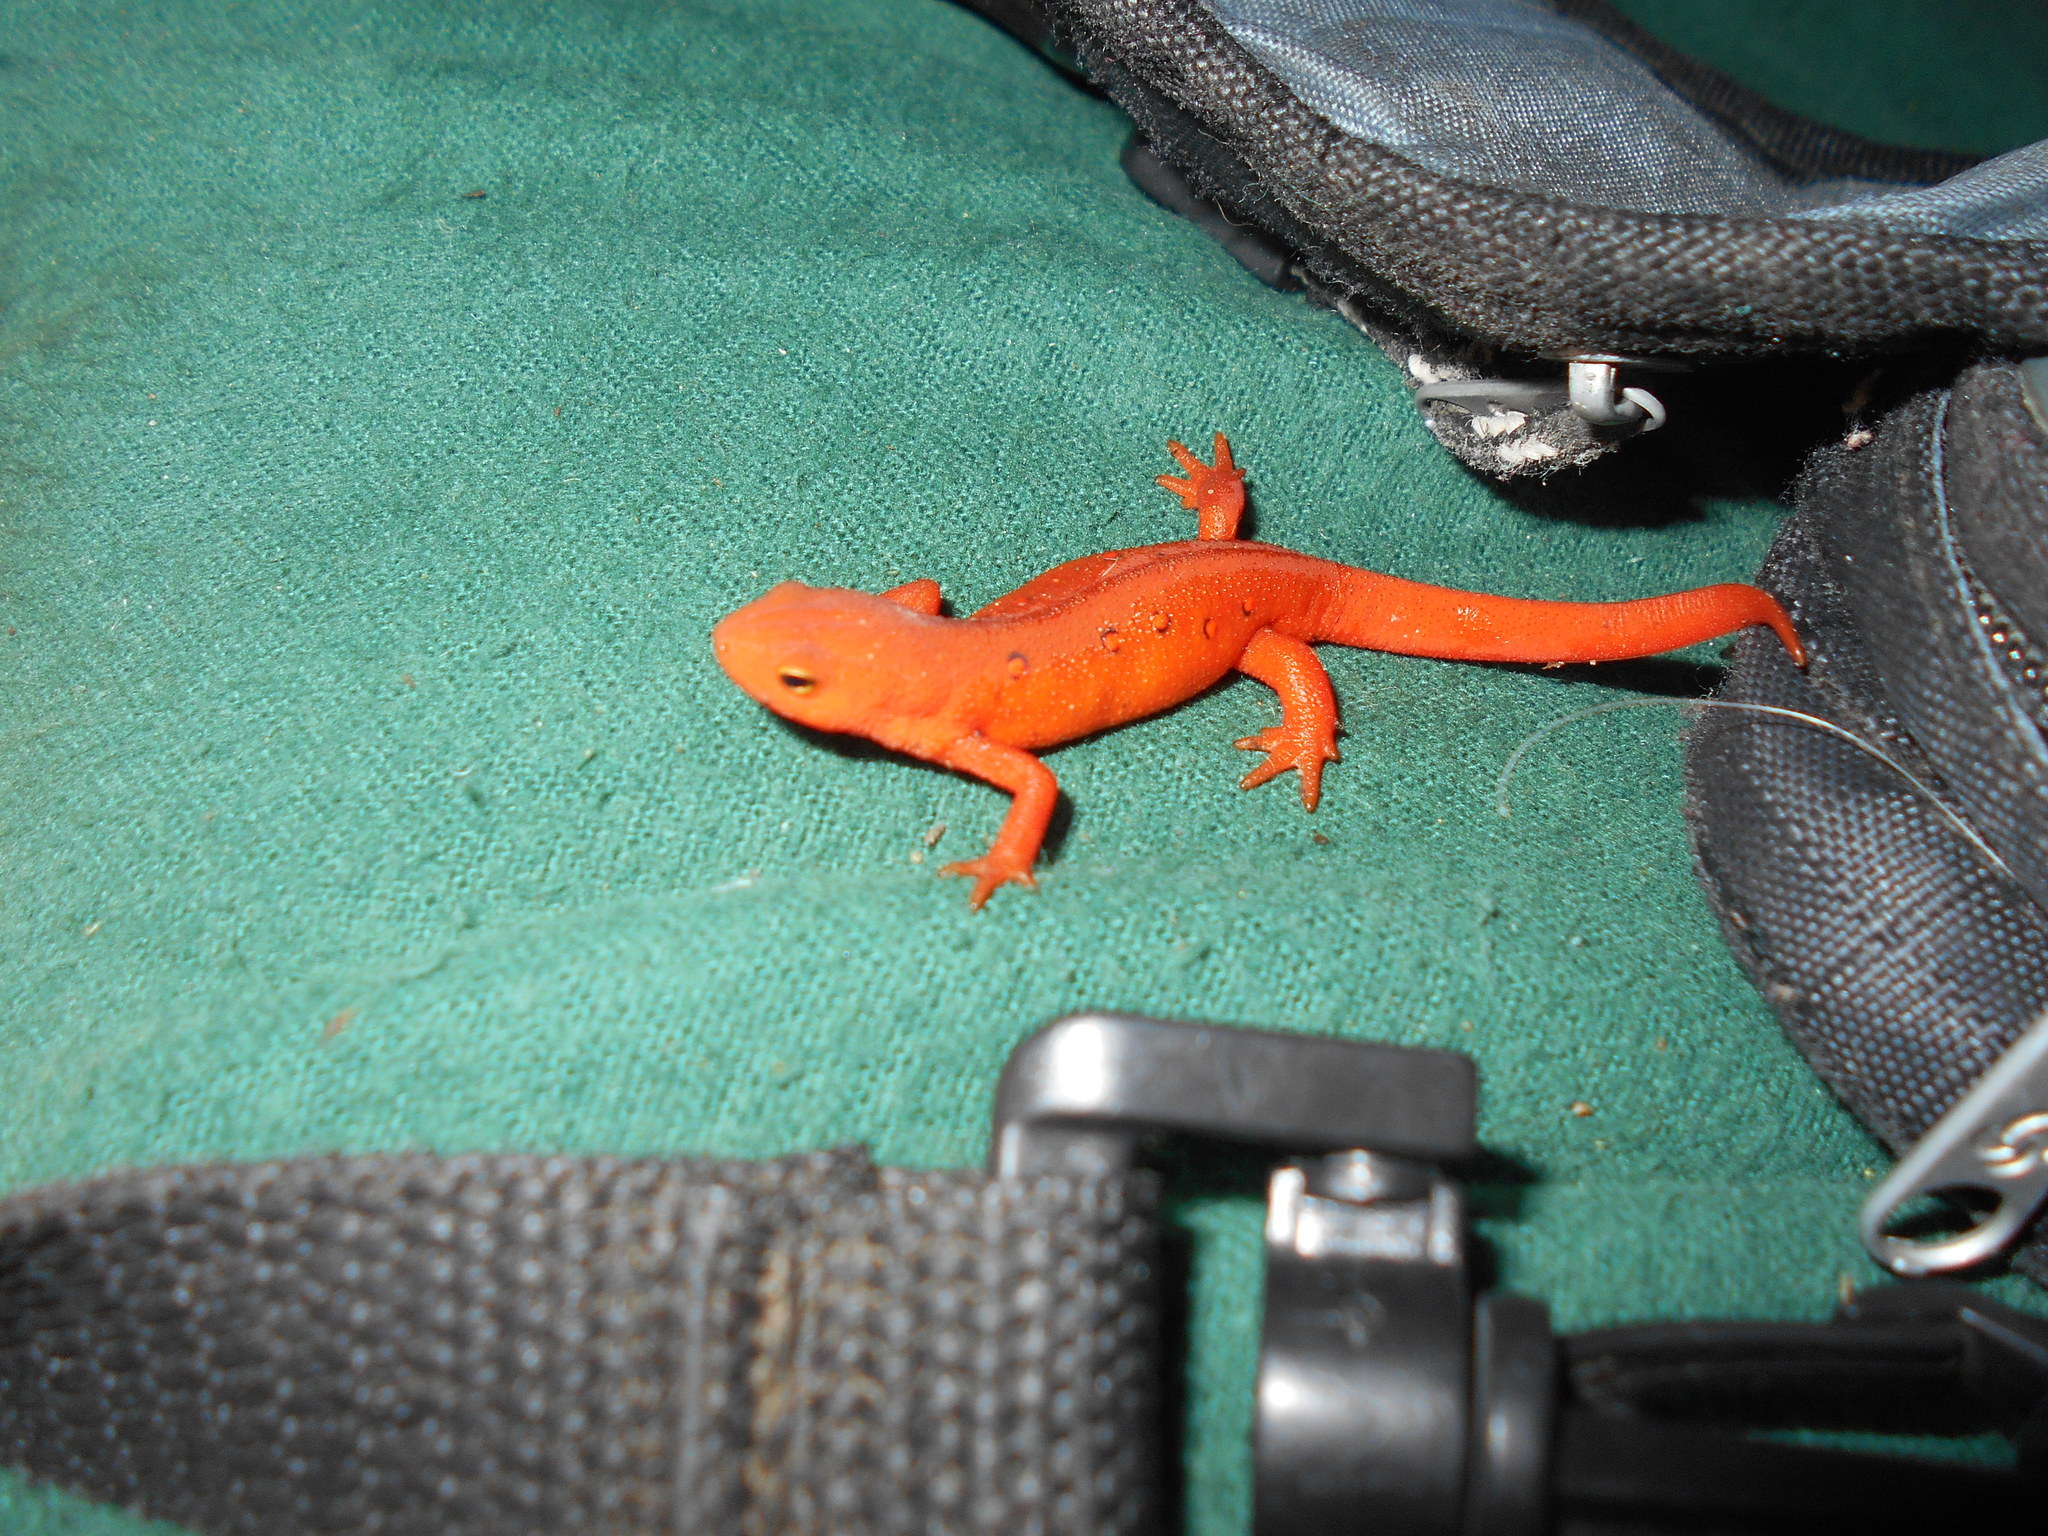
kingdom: Animalia
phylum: Chordata
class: Amphibia
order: Caudata
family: Salamandridae
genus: Notophthalmus
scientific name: Notophthalmus viridescens
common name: Eastern newt
